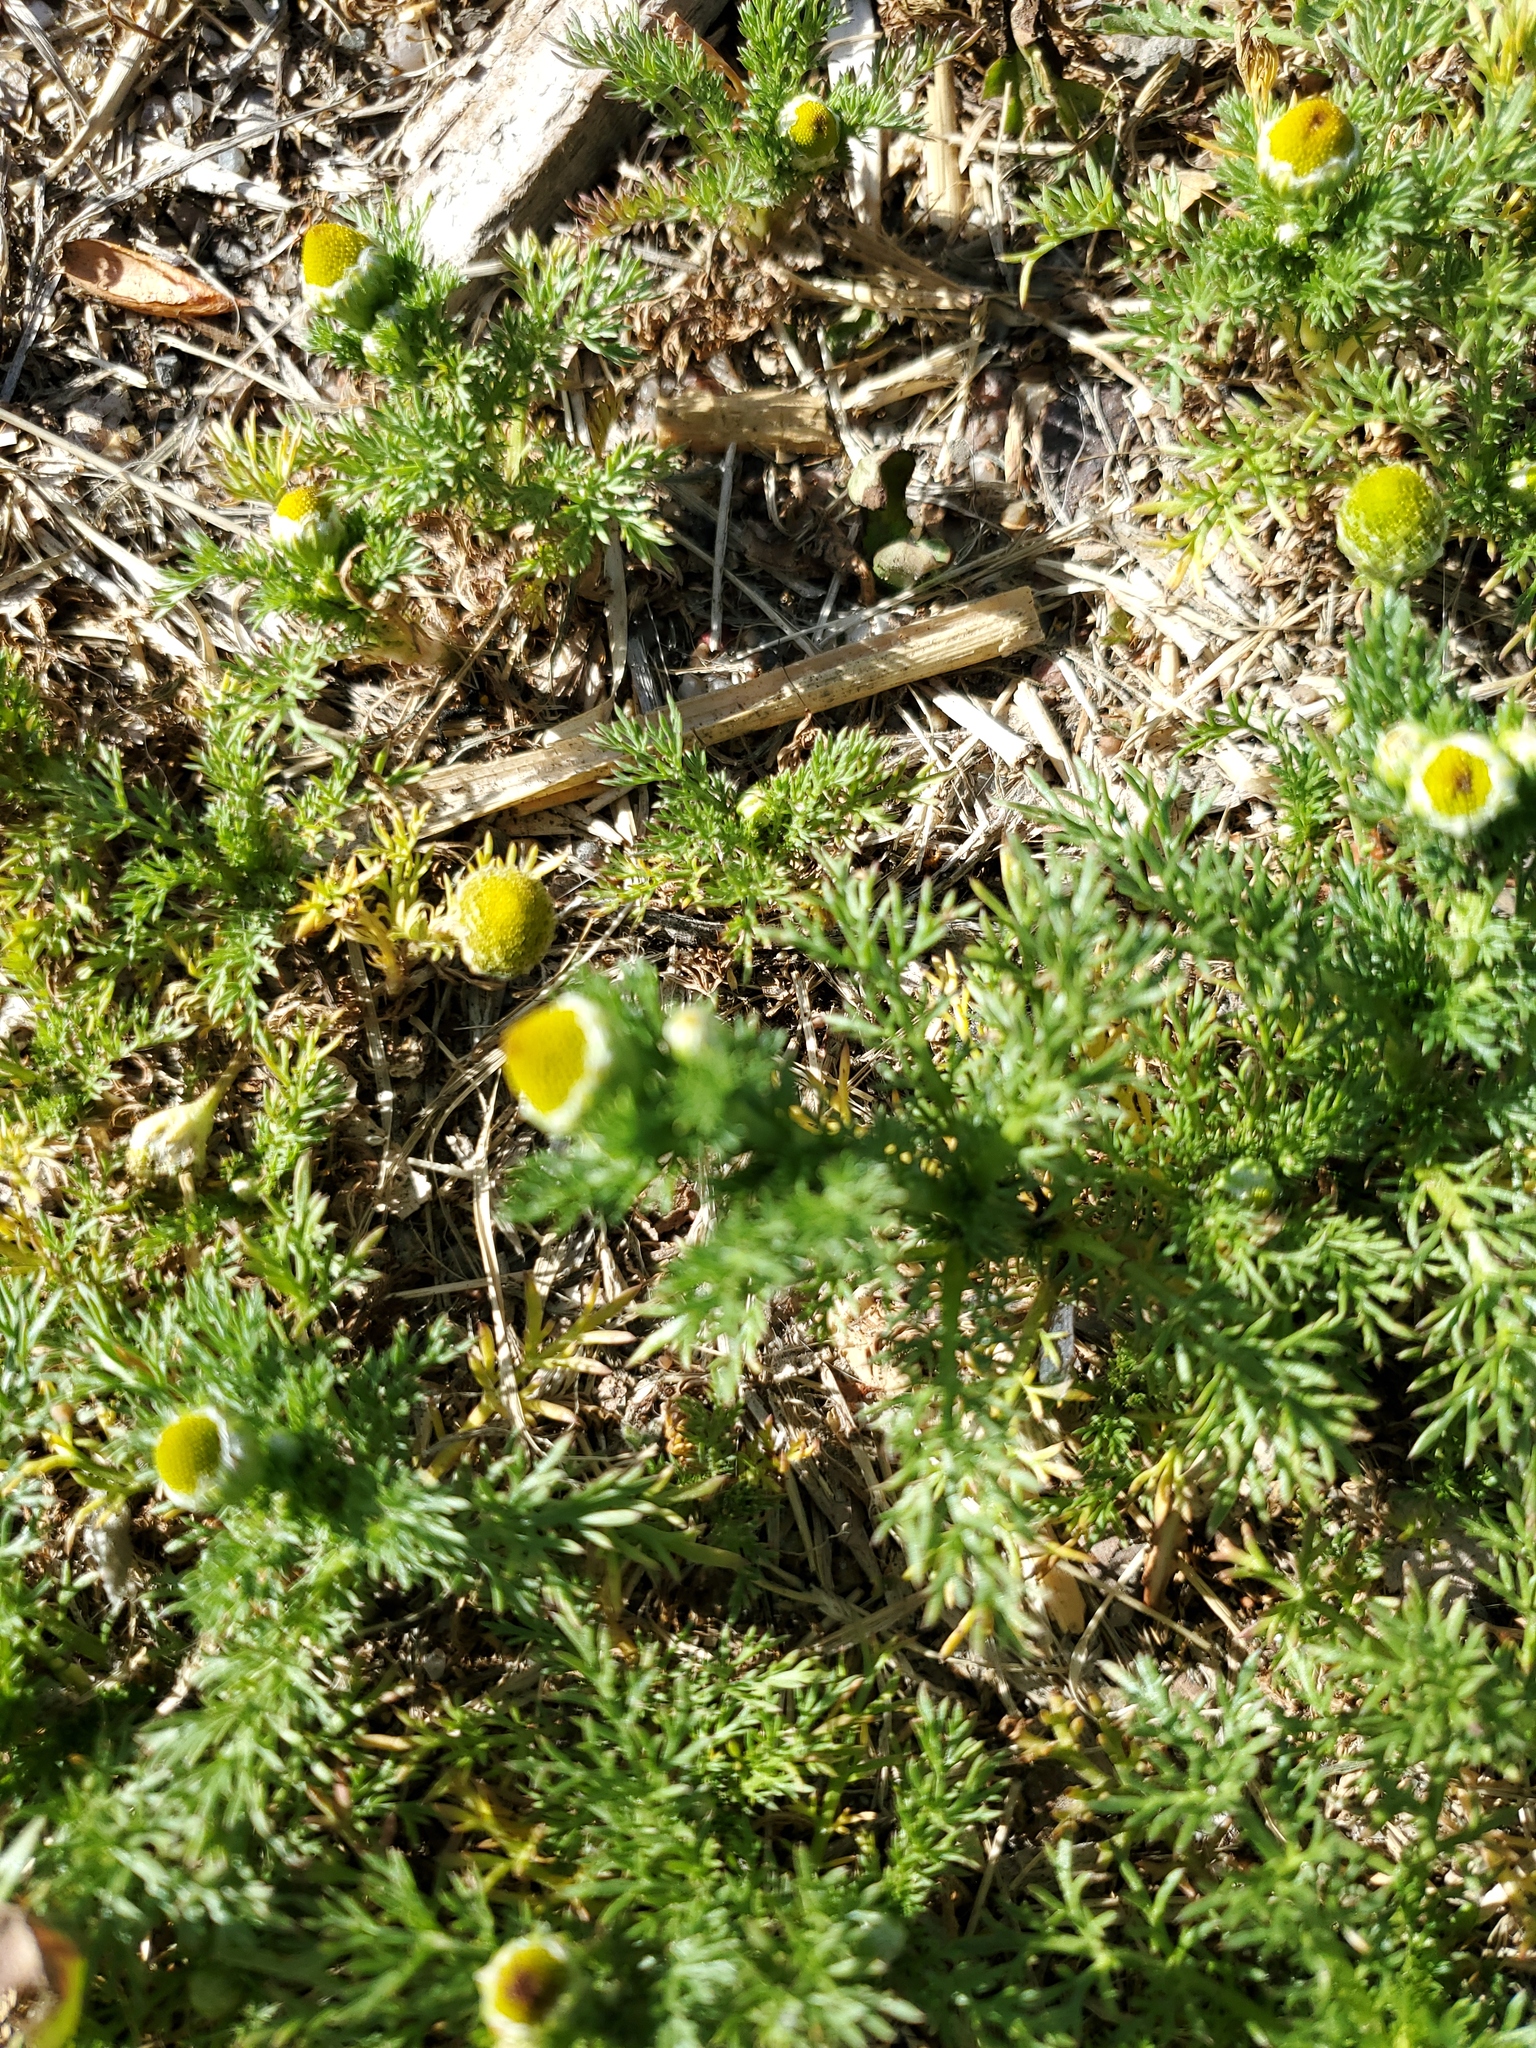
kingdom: Plantae
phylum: Tracheophyta
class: Magnoliopsida
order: Asterales
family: Asteraceae
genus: Matricaria
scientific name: Matricaria discoidea
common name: Disc mayweed
